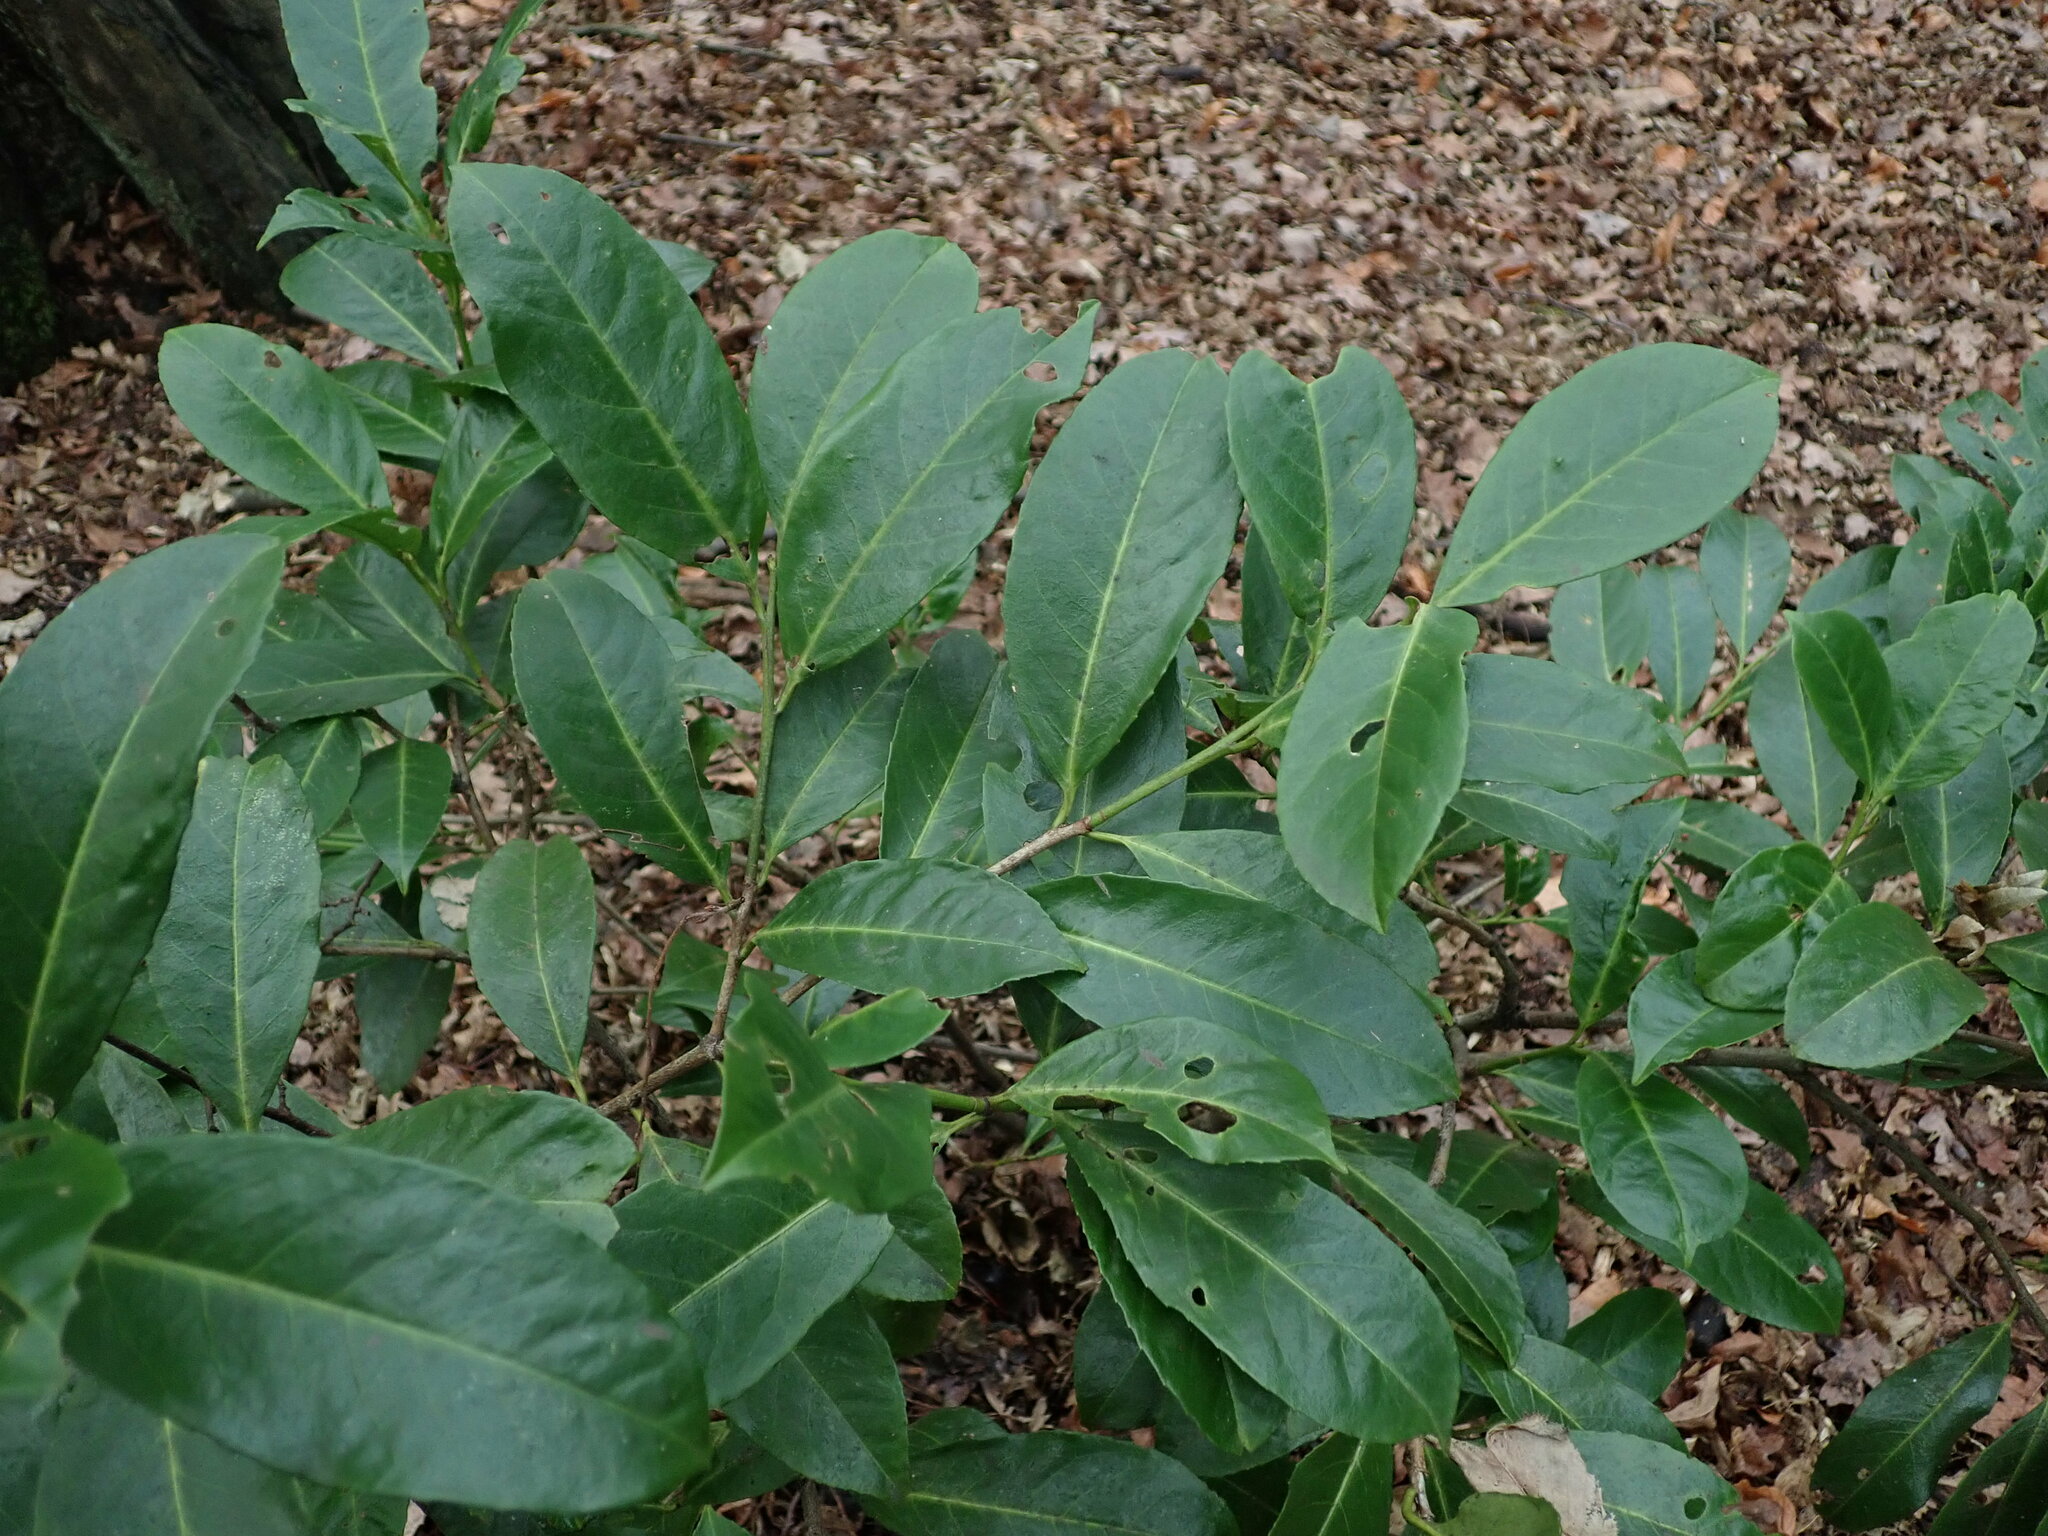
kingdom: Plantae
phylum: Tracheophyta
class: Magnoliopsida
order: Rosales
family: Rosaceae
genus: Prunus
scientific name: Prunus laurocerasus
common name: Cherry laurel
